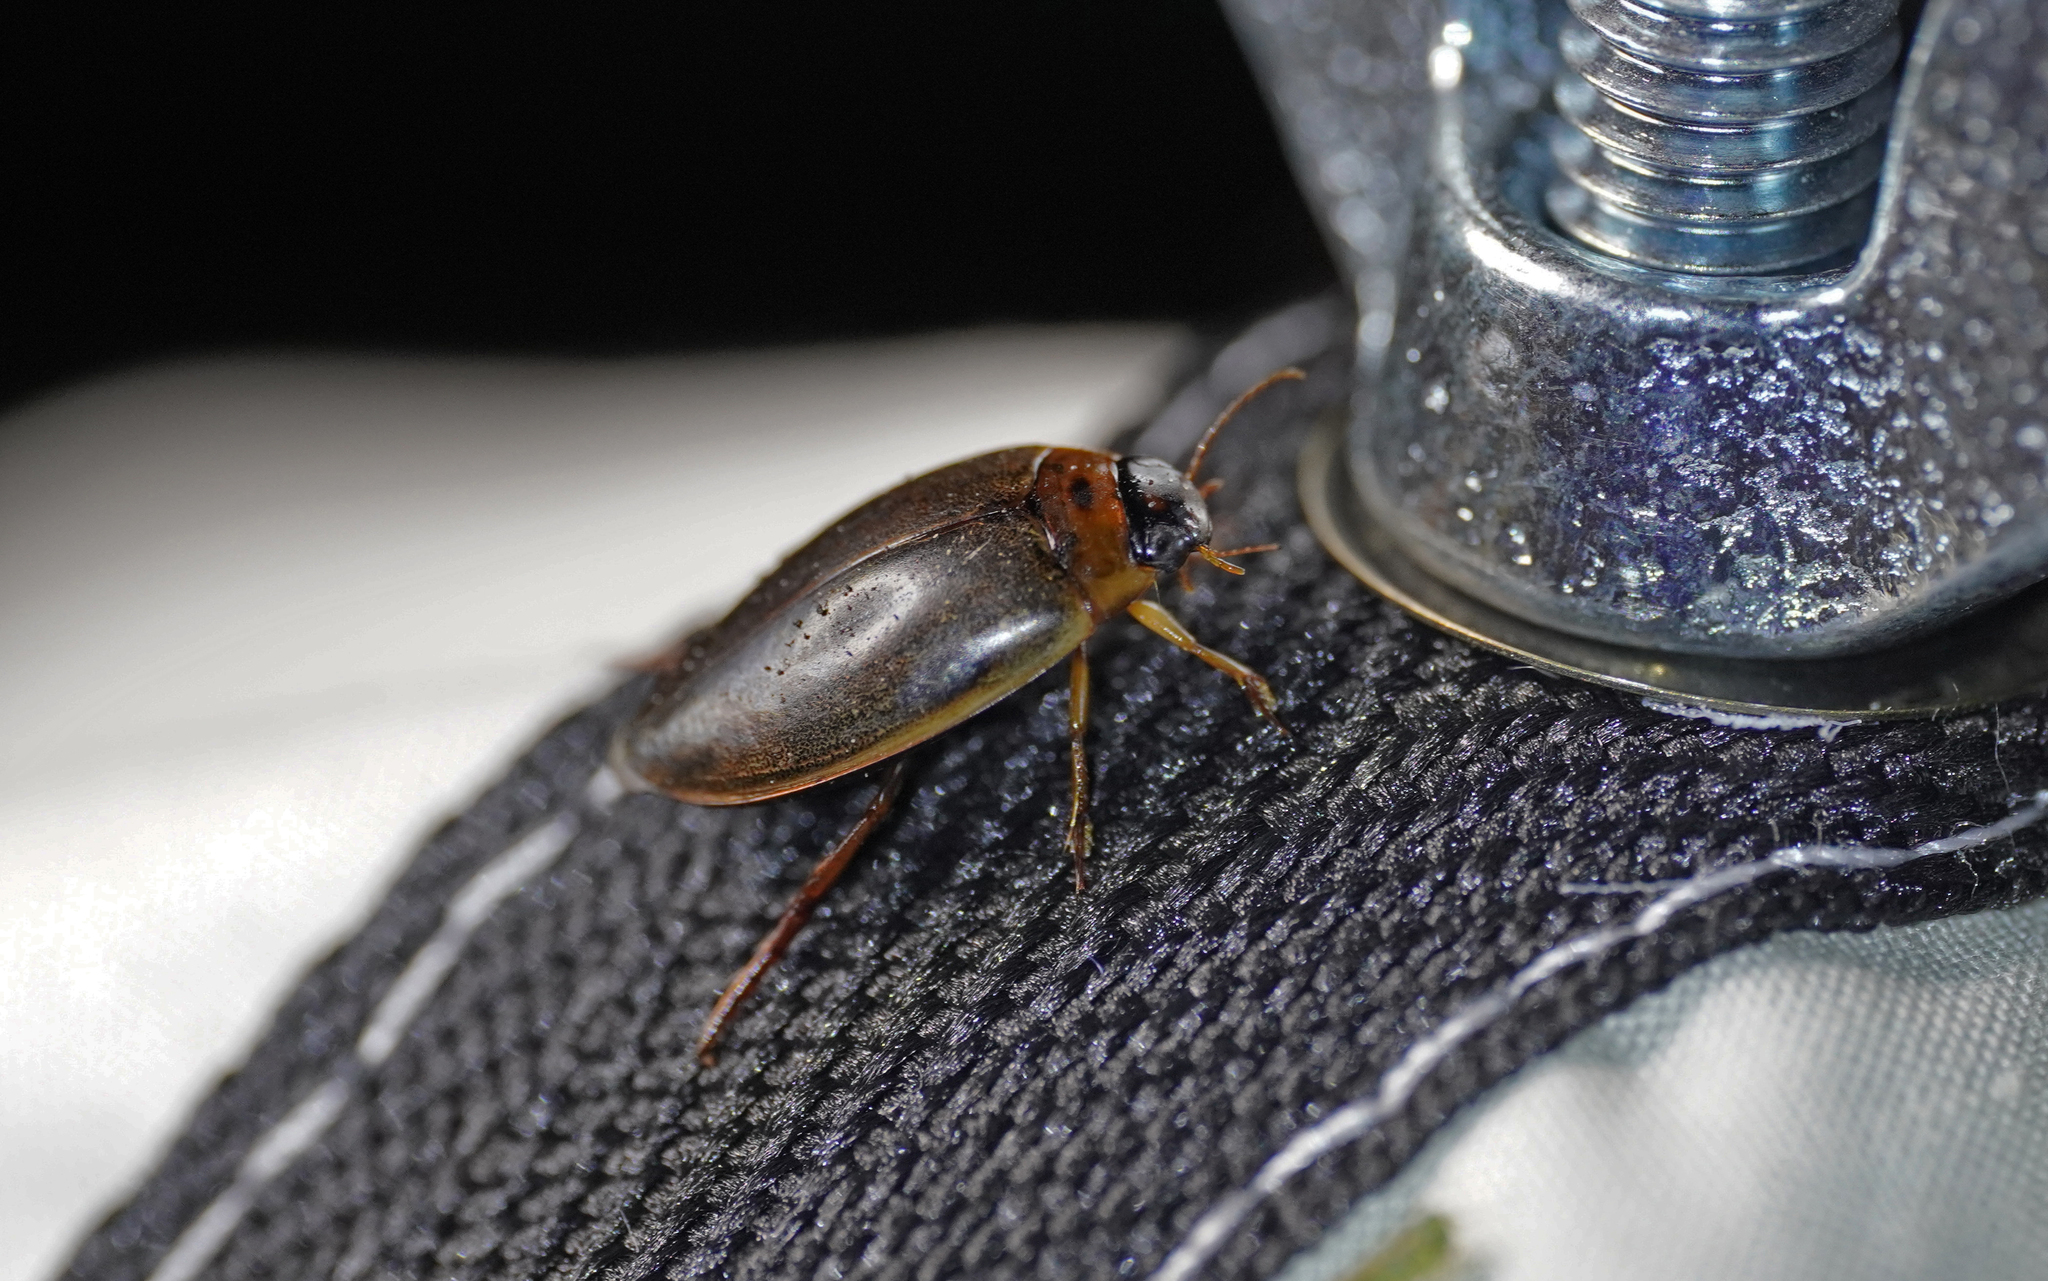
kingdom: Animalia
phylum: Arthropoda
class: Insecta
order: Coleoptera
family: Dytiscidae
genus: Rhantus
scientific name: Rhantus suturalis
